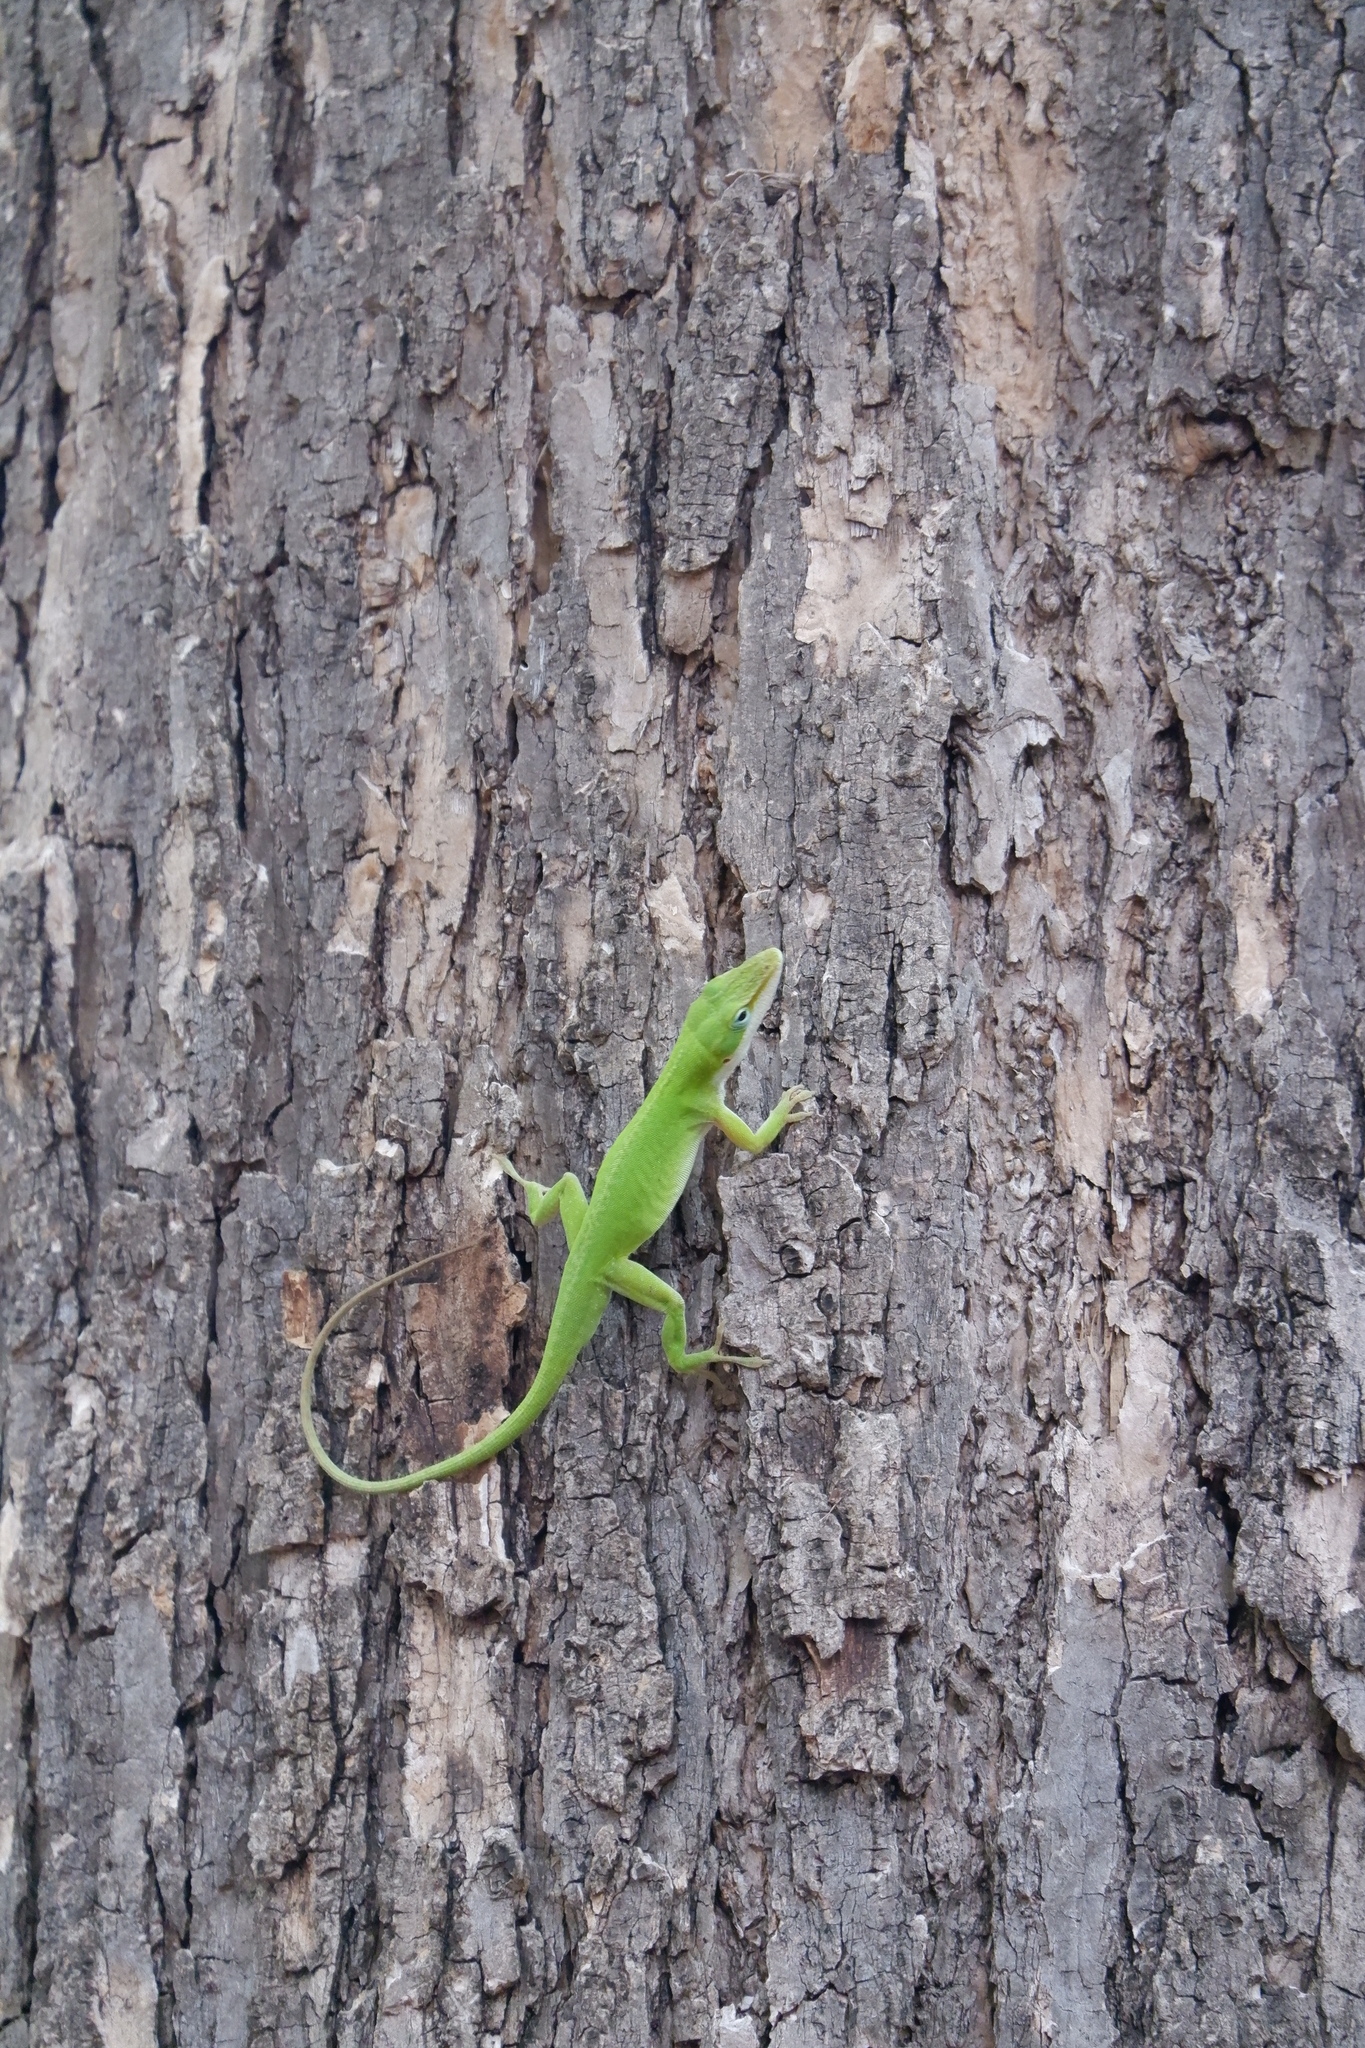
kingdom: Animalia
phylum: Chordata
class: Squamata
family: Dactyloidae
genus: Anolis
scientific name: Anolis carolinensis
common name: Green anole
